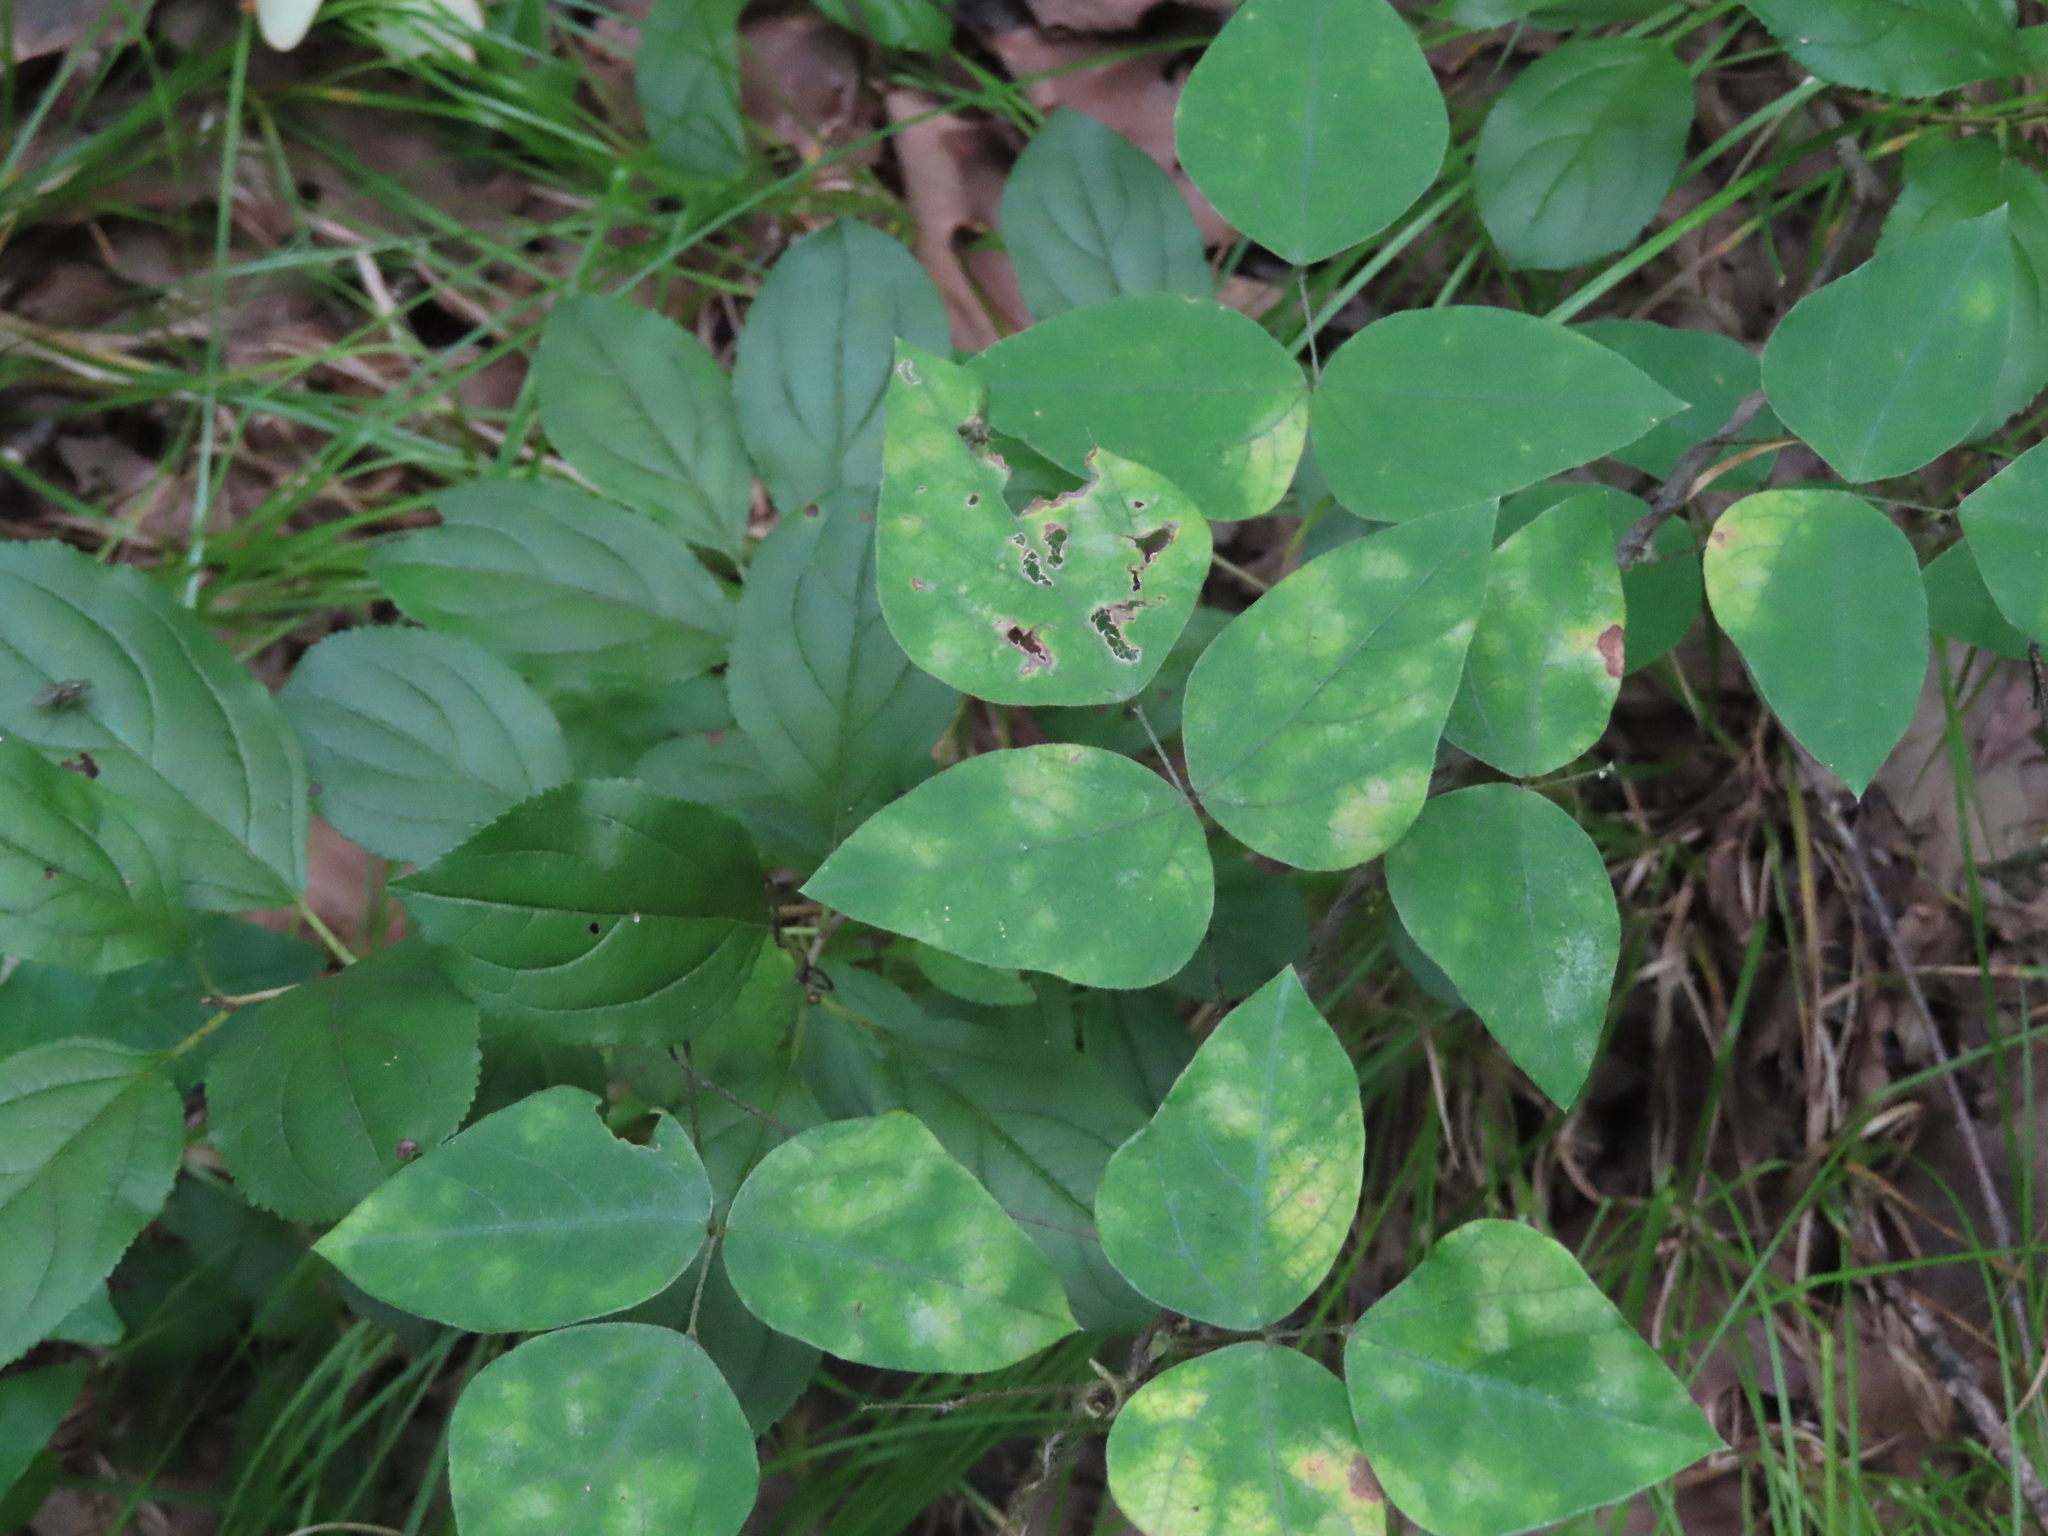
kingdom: Plantae
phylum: Tracheophyta
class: Magnoliopsida
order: Fabales
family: Fabaceae
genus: Amphicarpaea
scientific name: Amphicarpaea bracteata
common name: American hog peanut
